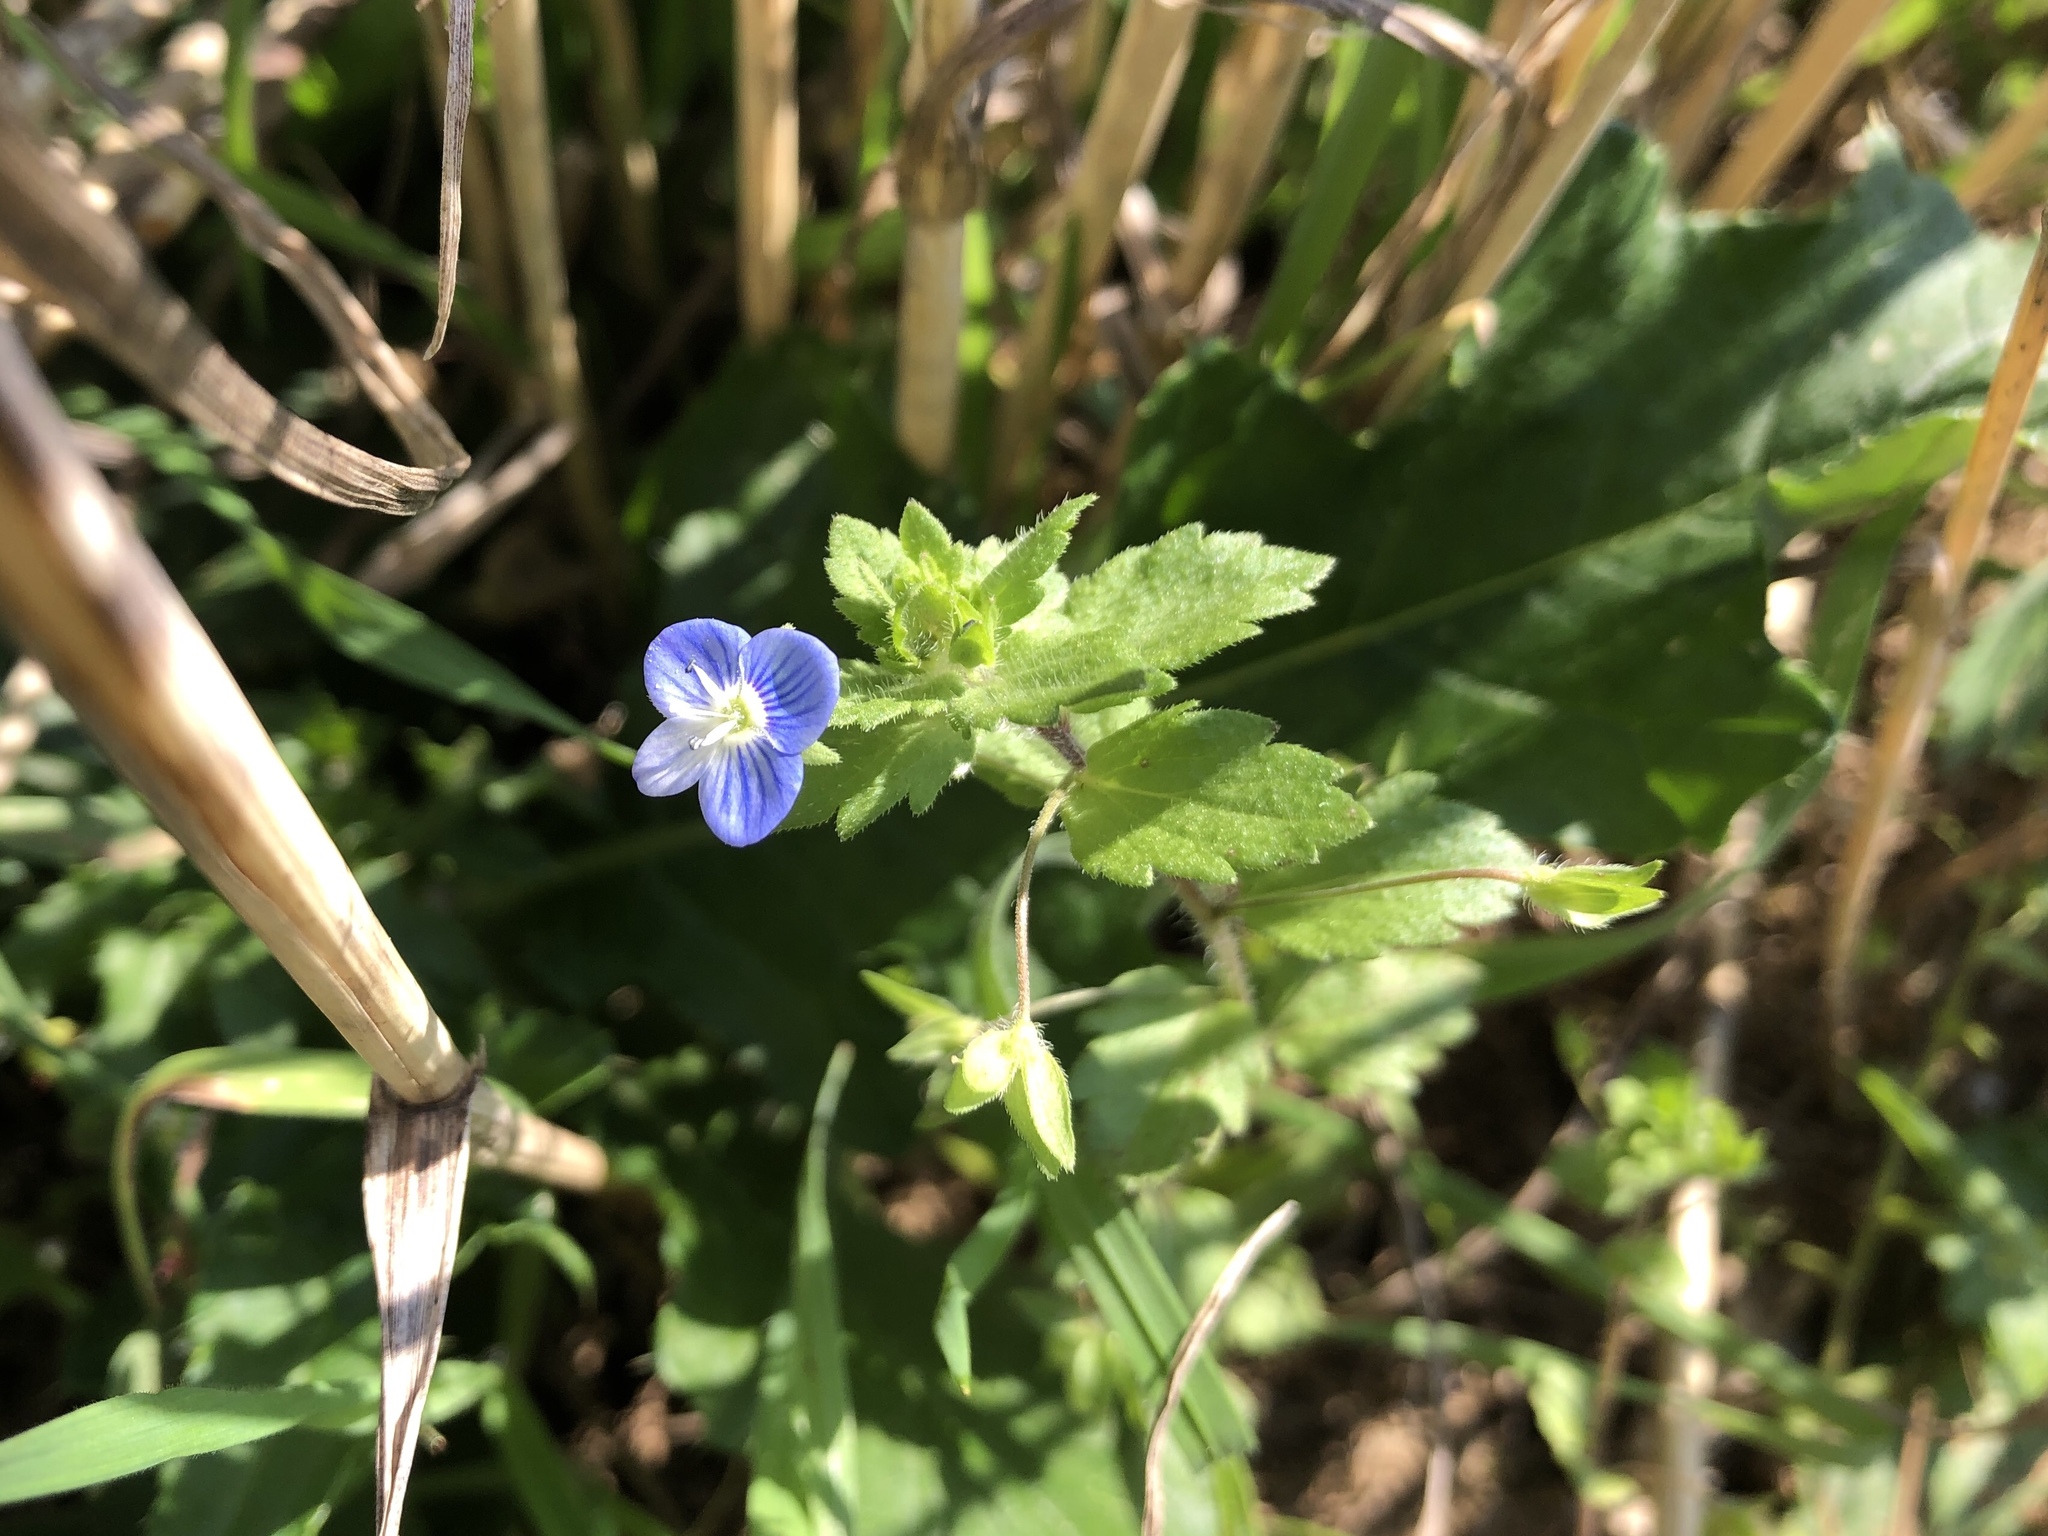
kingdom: Plantae
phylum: Tracheophyta
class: Magnoliopsida
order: Lamiales
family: Plantaginaceae
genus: Veronica
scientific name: Veronica persica
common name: Common field-speedwell
